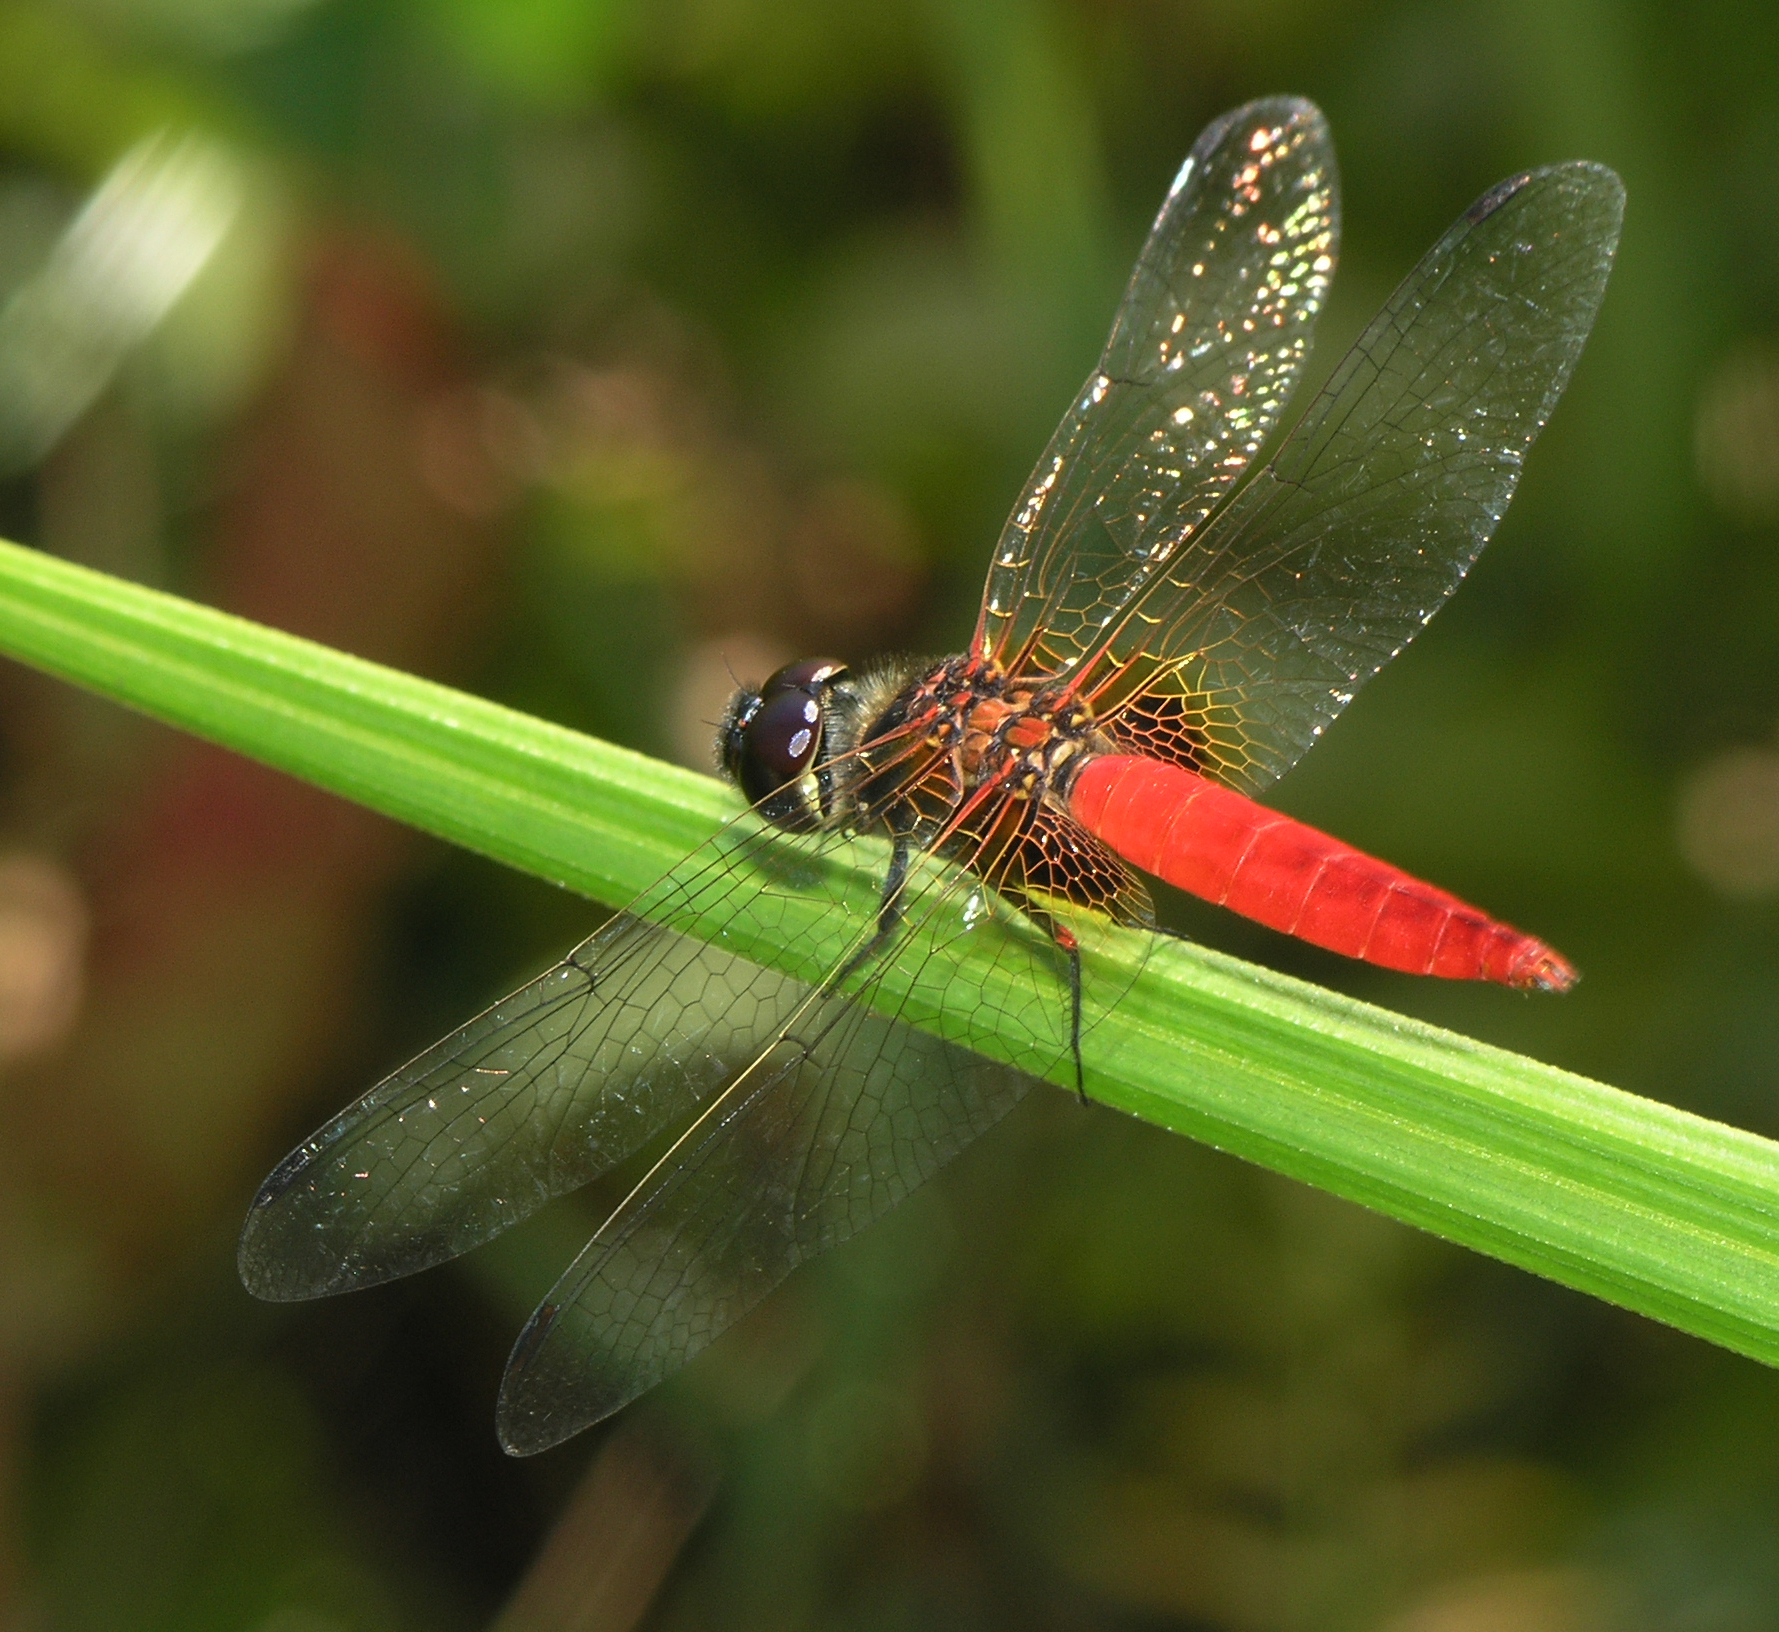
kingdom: Animalia
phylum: Arthropoda
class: Insecta
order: Odonata
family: Libellulidae
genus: Aethriamanta
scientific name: Aethriamanta brevipennis
